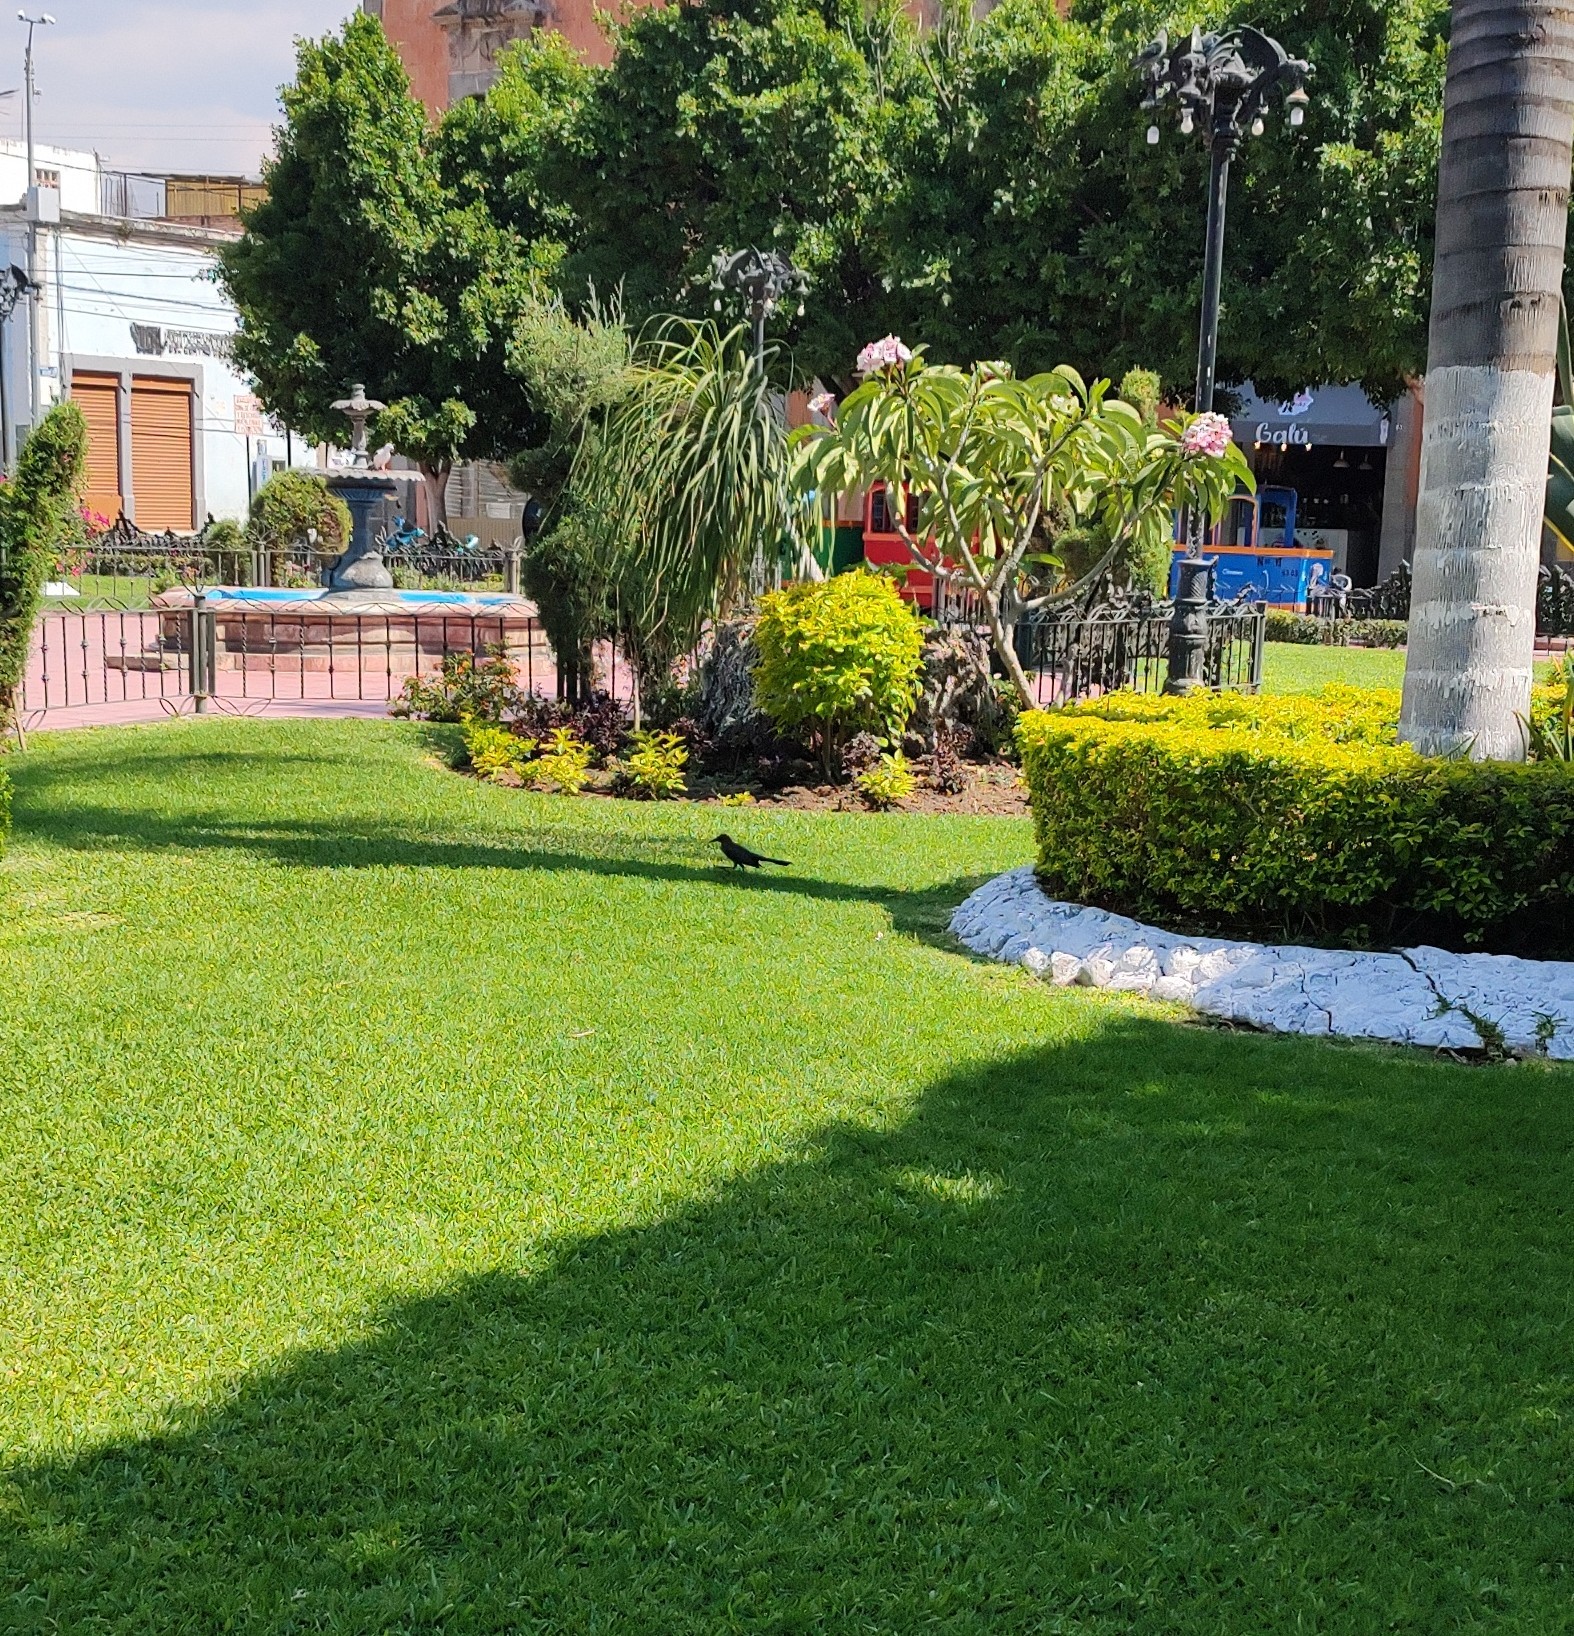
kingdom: Animalia
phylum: Chordata
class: Aves
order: Passeriformes
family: Icteridae
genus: Quiscalus
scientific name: Quiscalus mexicanus
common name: Great-tailed grackle
